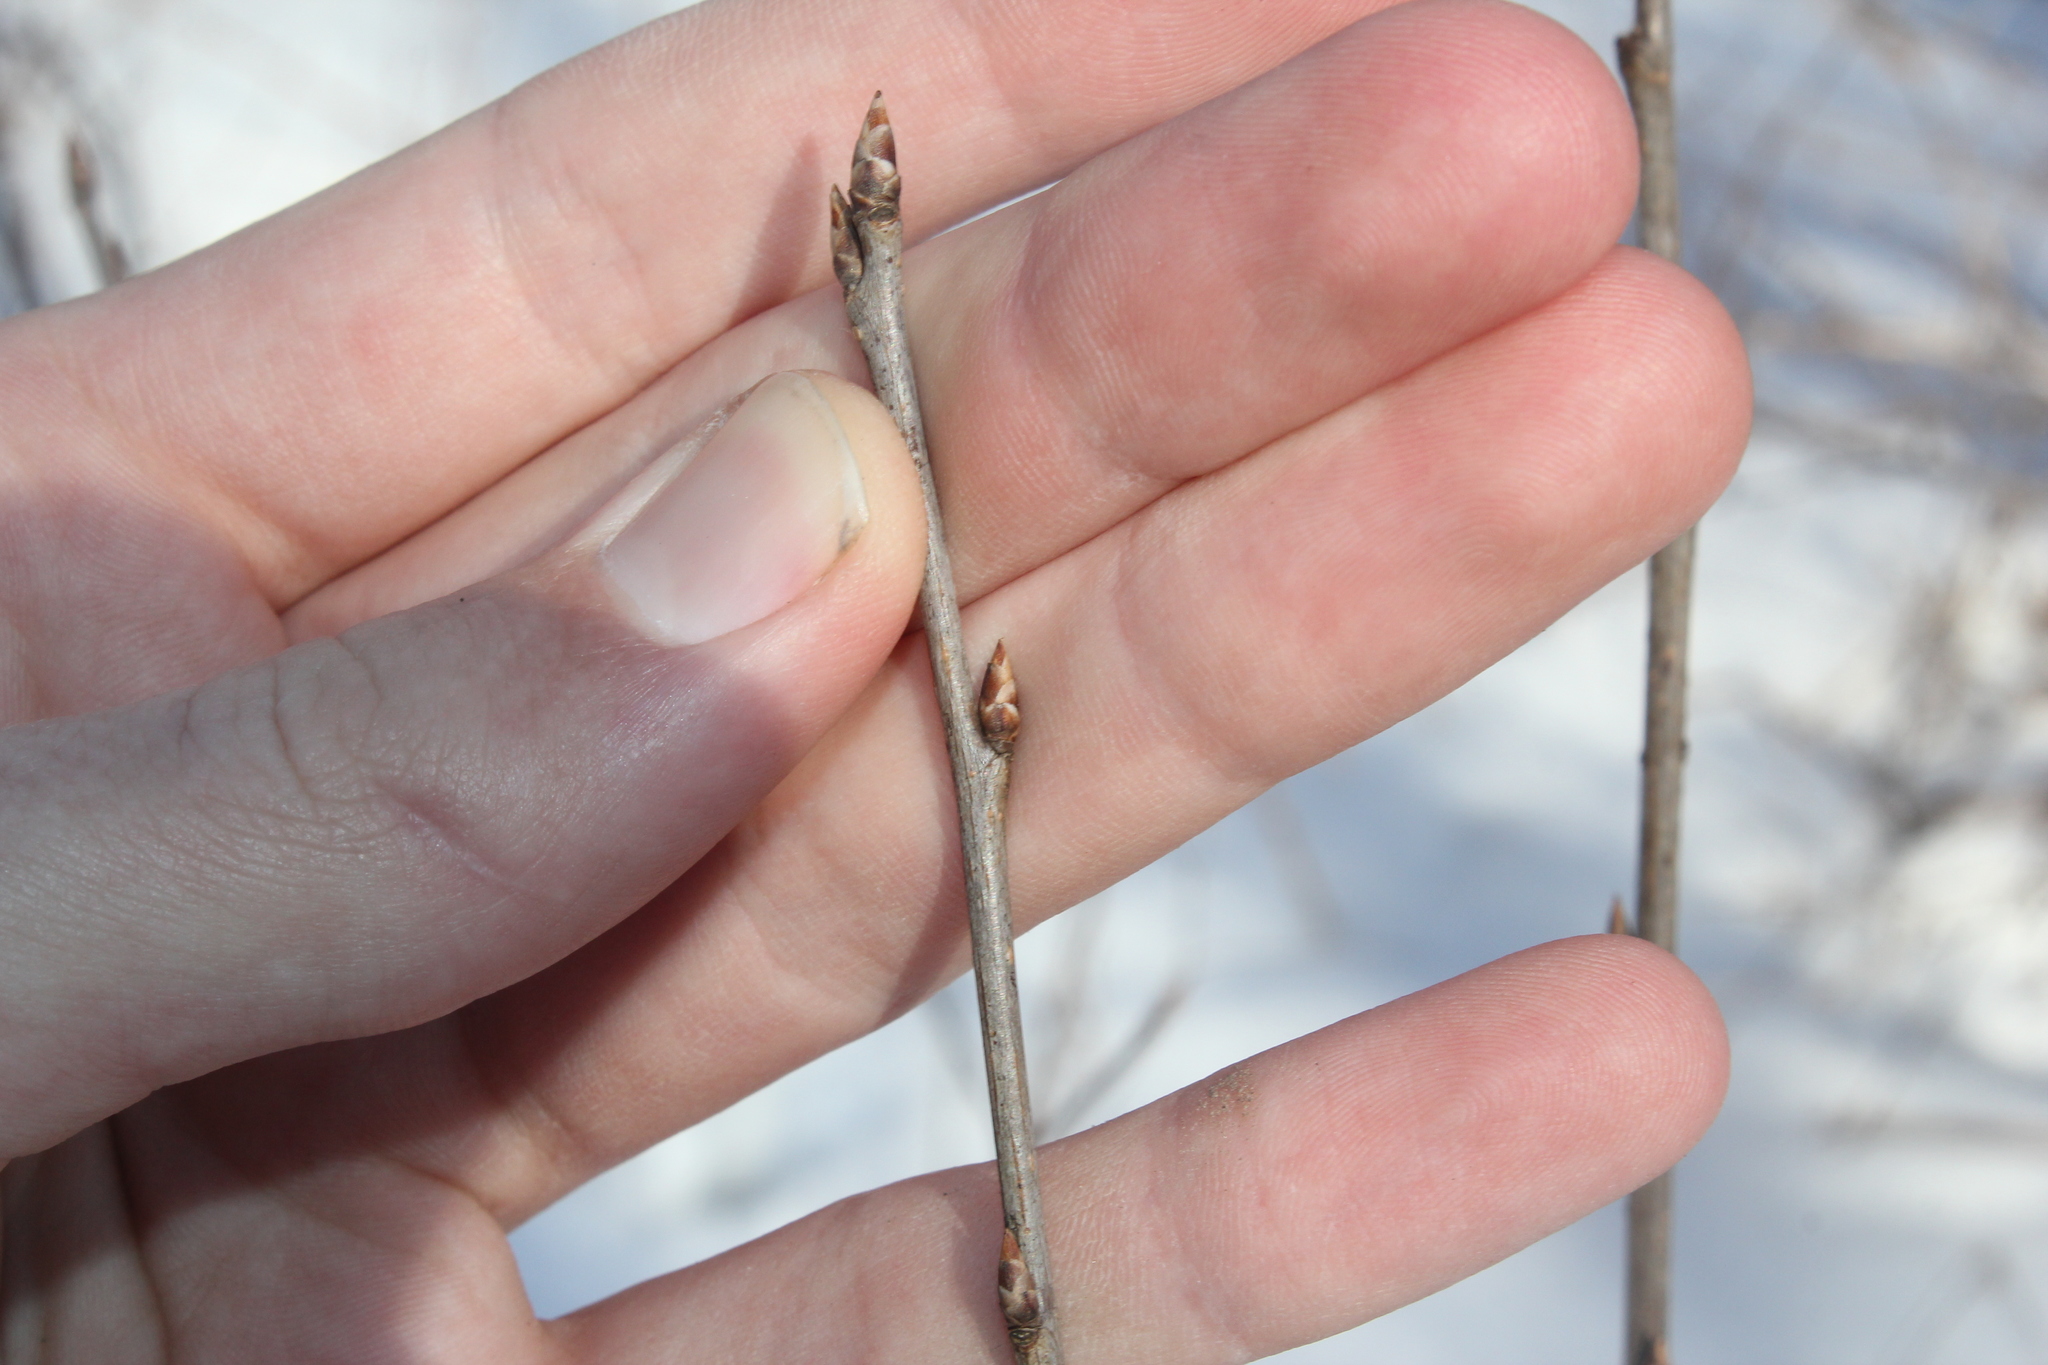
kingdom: Plantae
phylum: Tracheophyta
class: Magnoliopsida
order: Rosales
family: Rosaceae
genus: Prunus
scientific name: Prunus virginiana
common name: Chokecherry
